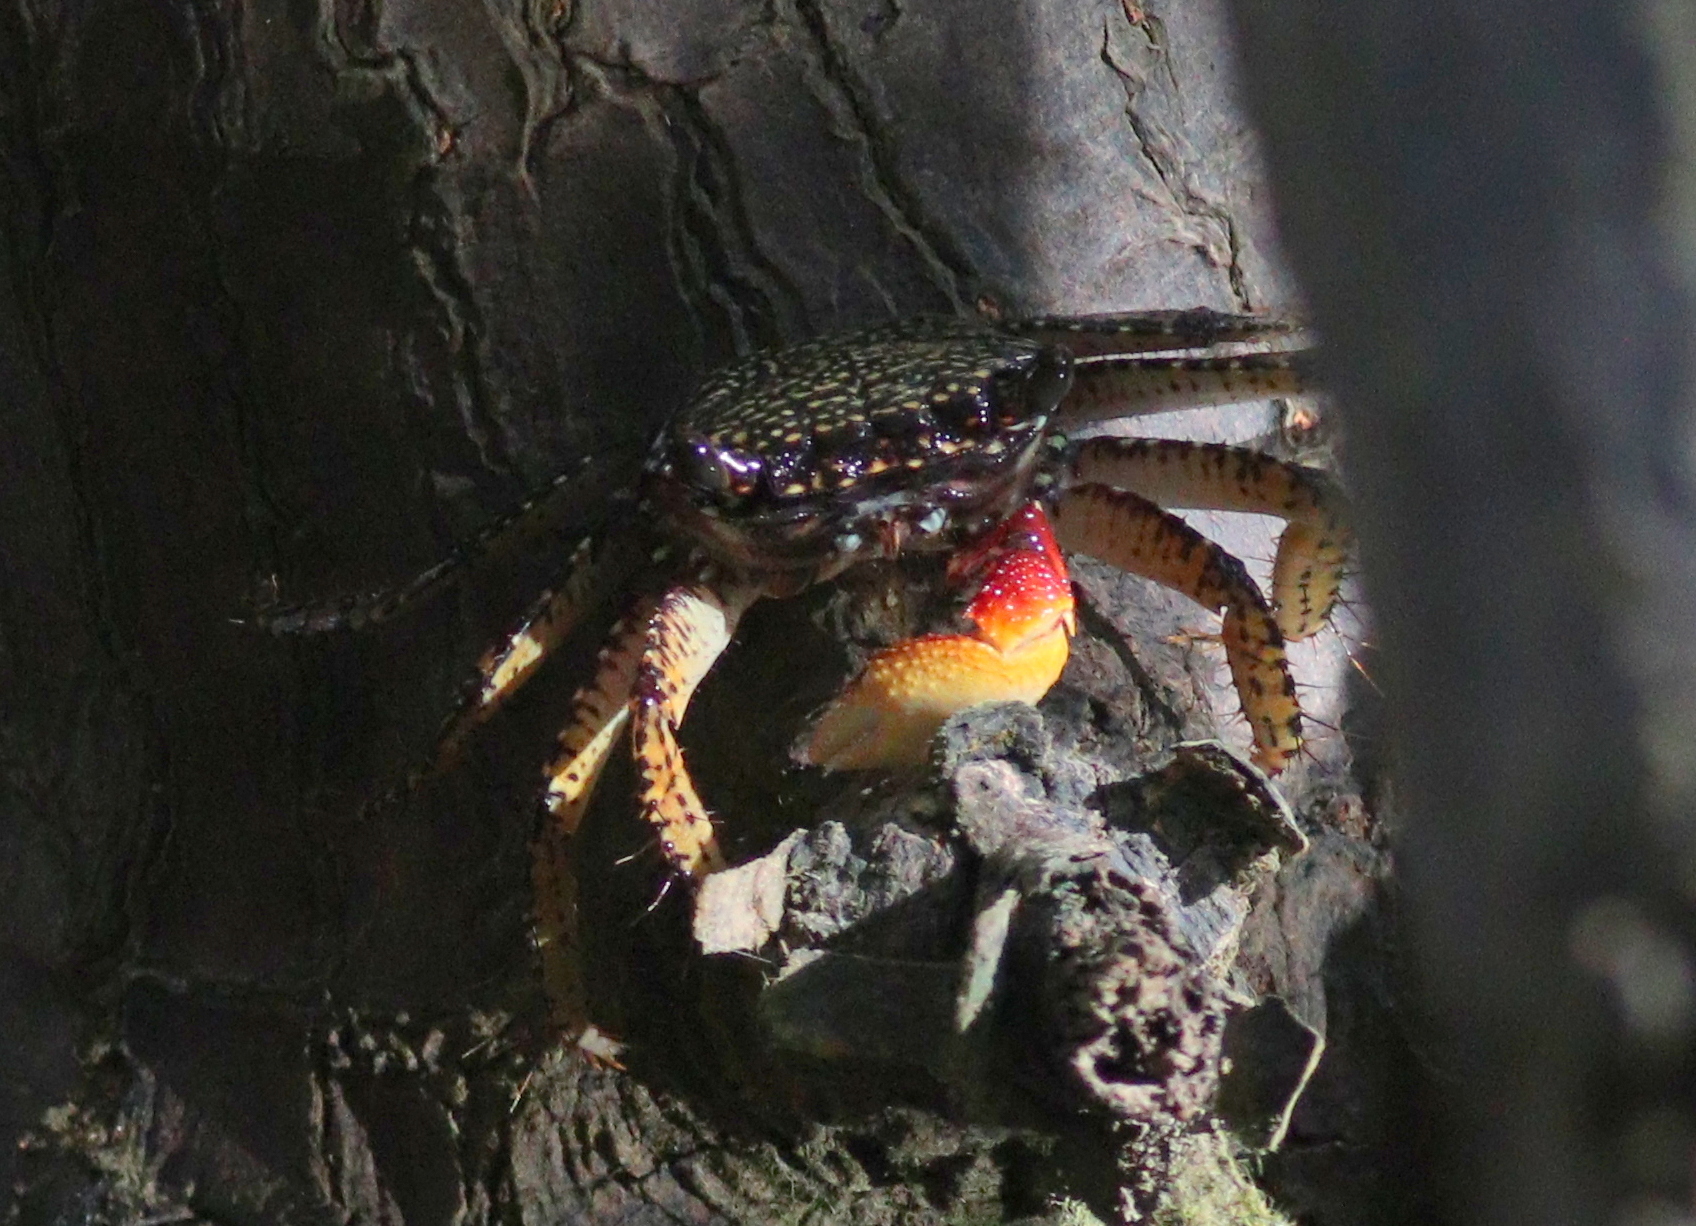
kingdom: Animalia
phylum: Arthropoda
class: Malacostraca
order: Decapoda
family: Grapsidae
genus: Goniopsis
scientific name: Goniopsis pulchra
